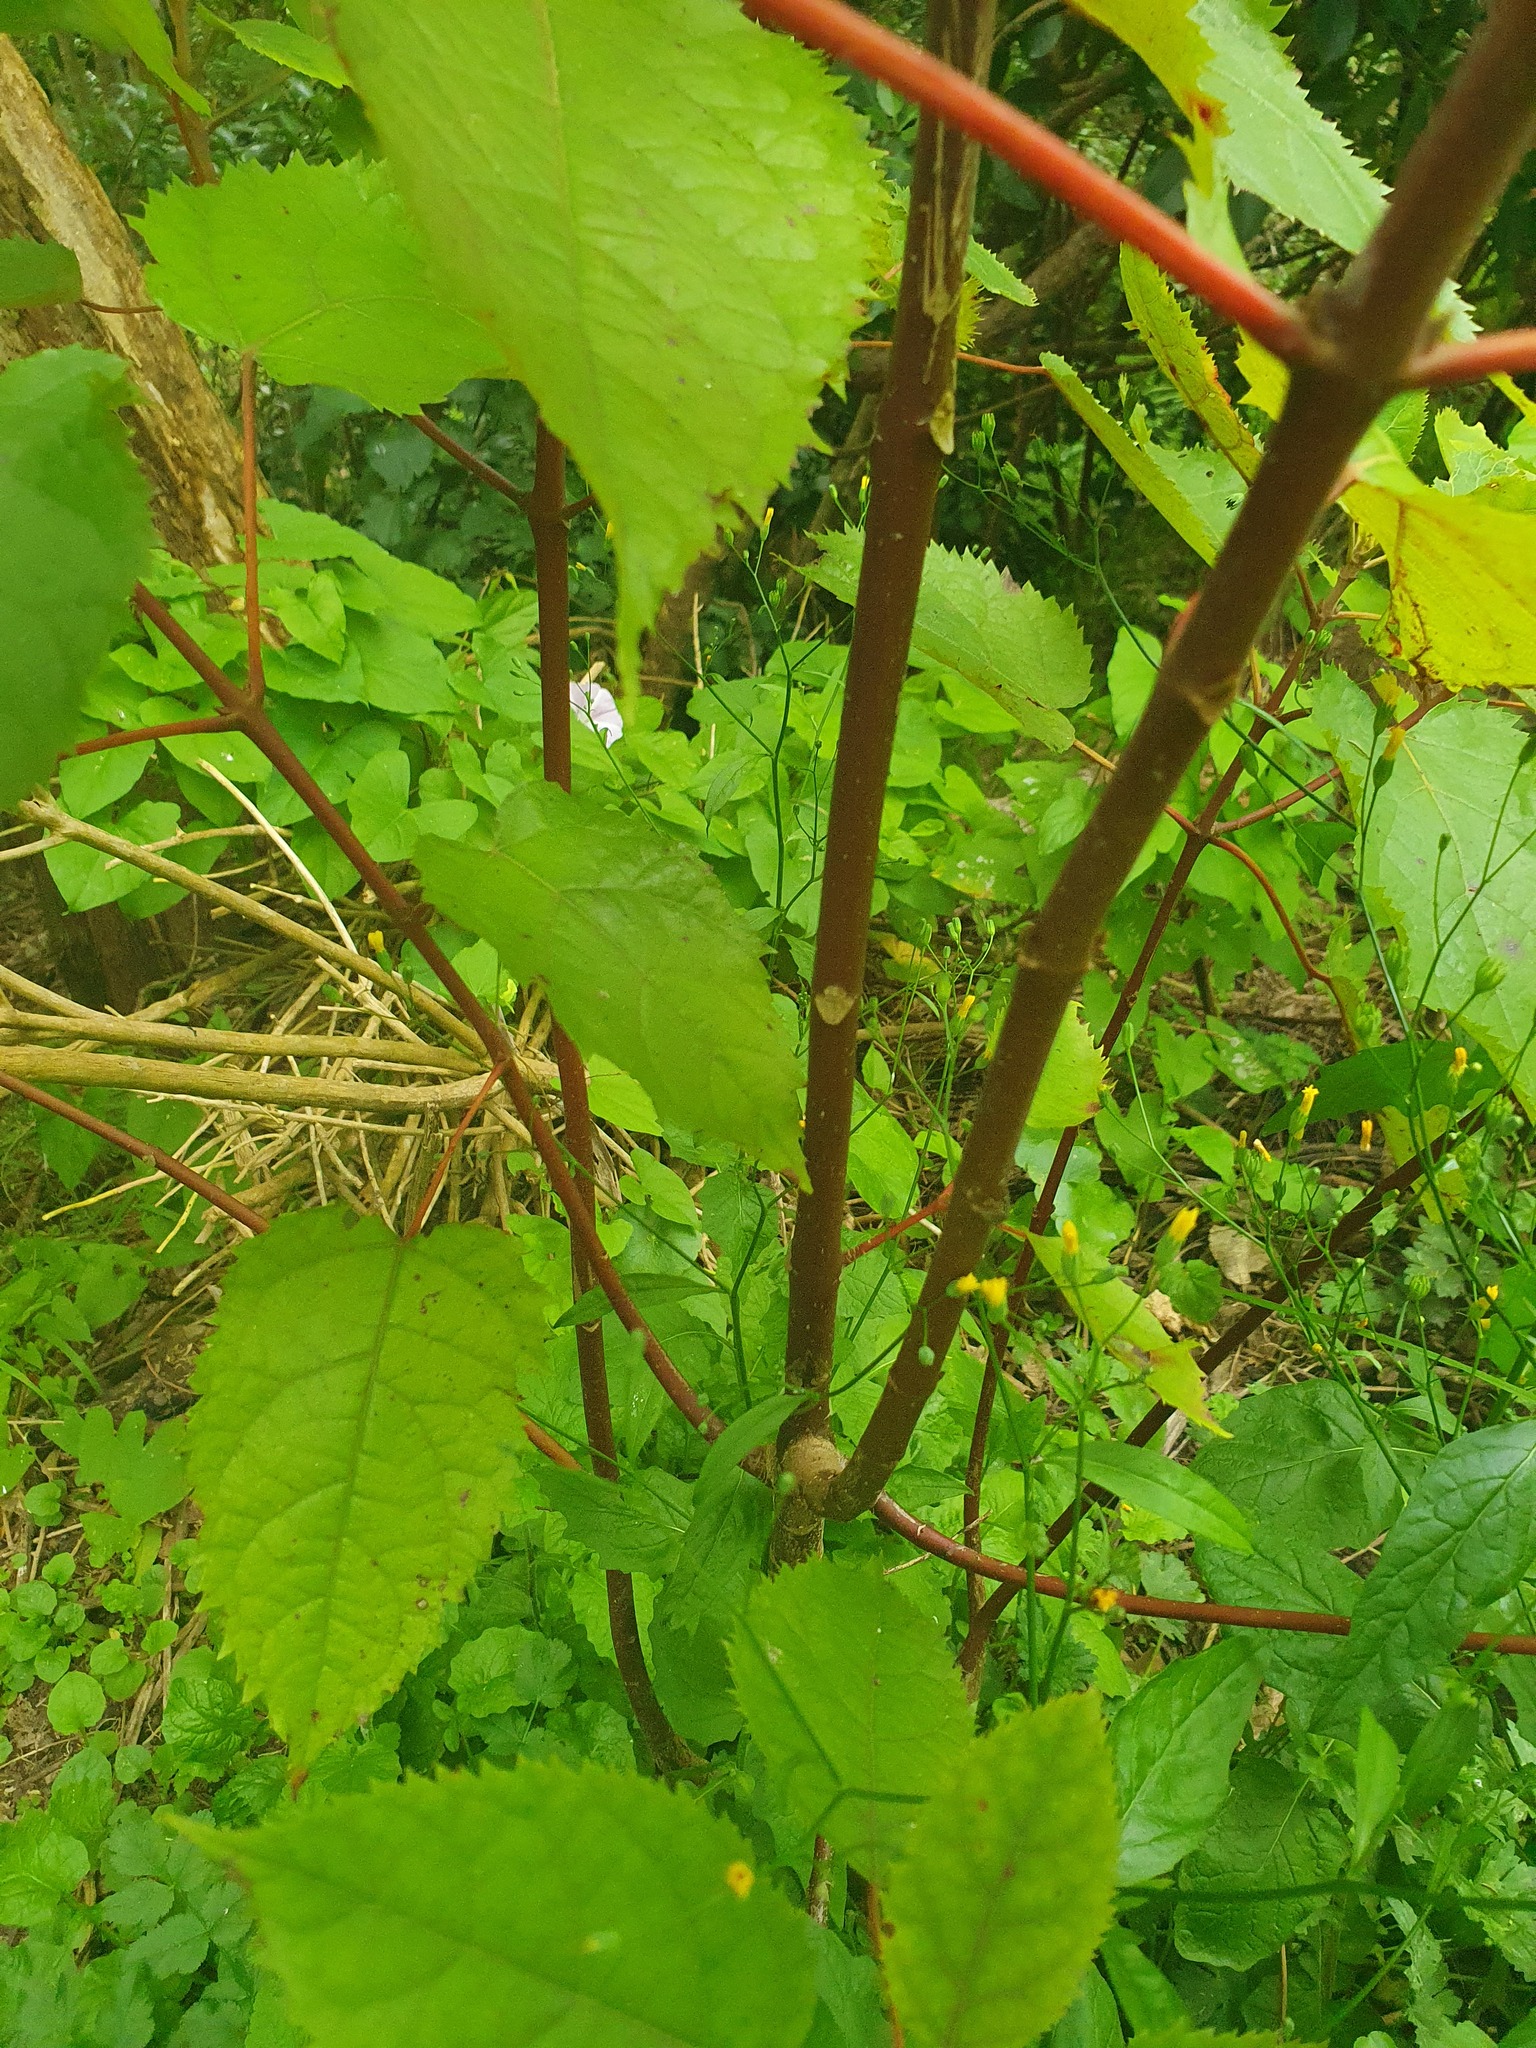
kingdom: Plantae
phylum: Tracheophyta
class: Magnoliopsida
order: Oxalidales
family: Elaeocarpaceae
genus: Aristotelia
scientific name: Aristotelia serrata
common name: New zealand wineberry
